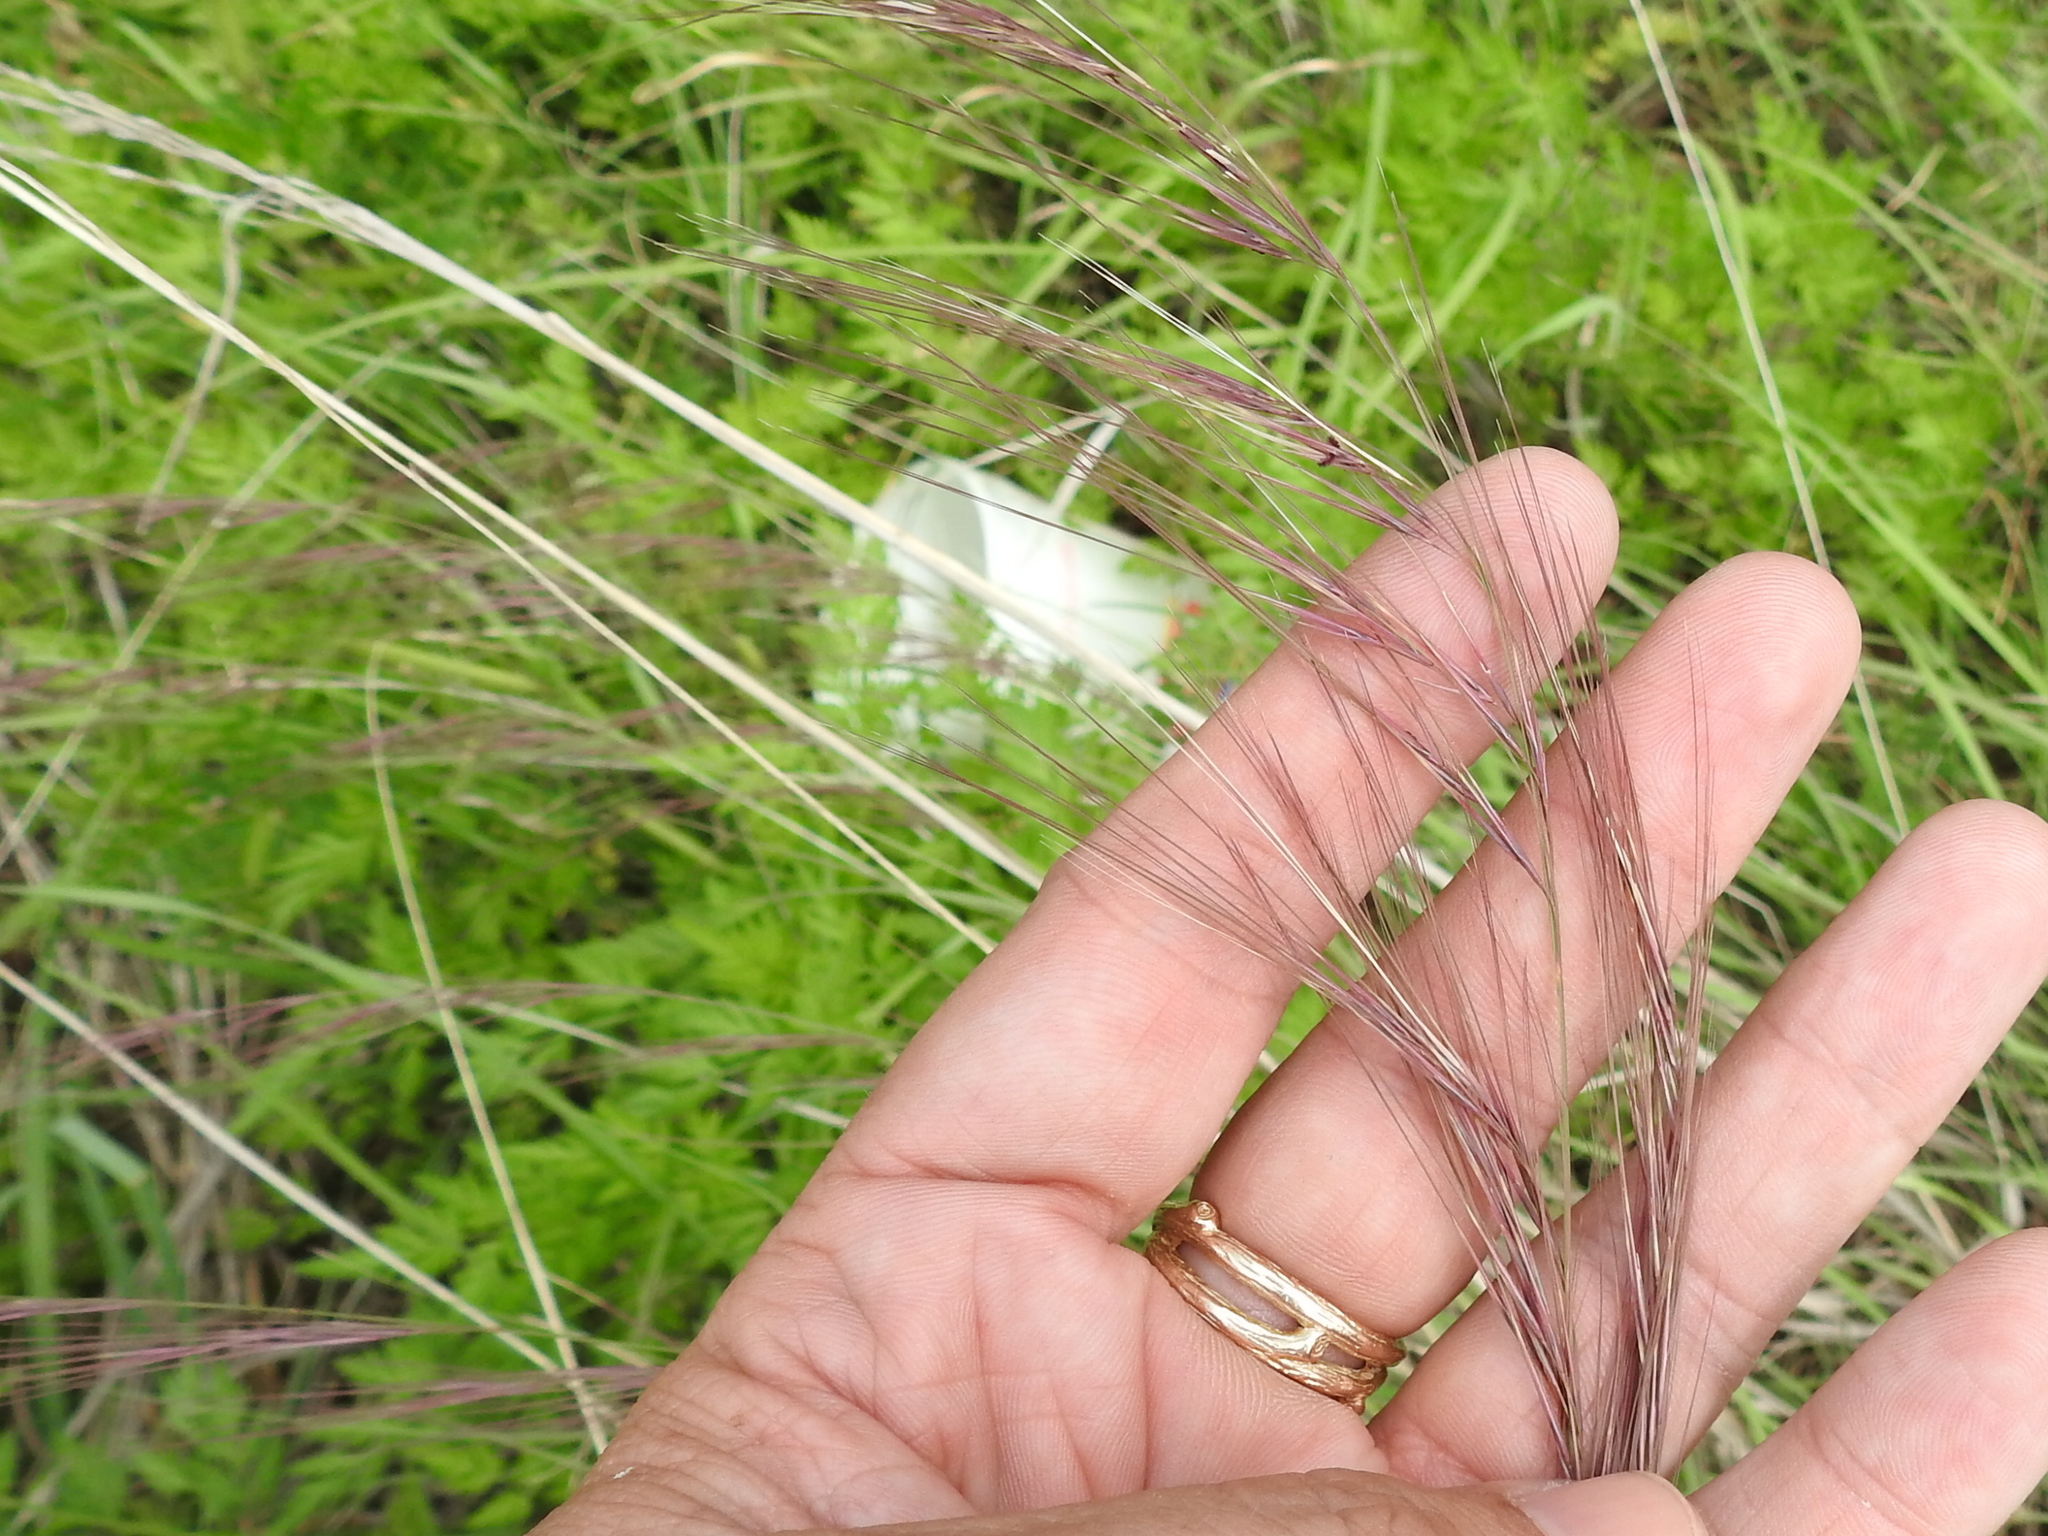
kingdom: Plantae
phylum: Tracheophyta
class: Liliopsida
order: Poales
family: Poaceae
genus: Aristida
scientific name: Aristida purpurea
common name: Purple threeawn
